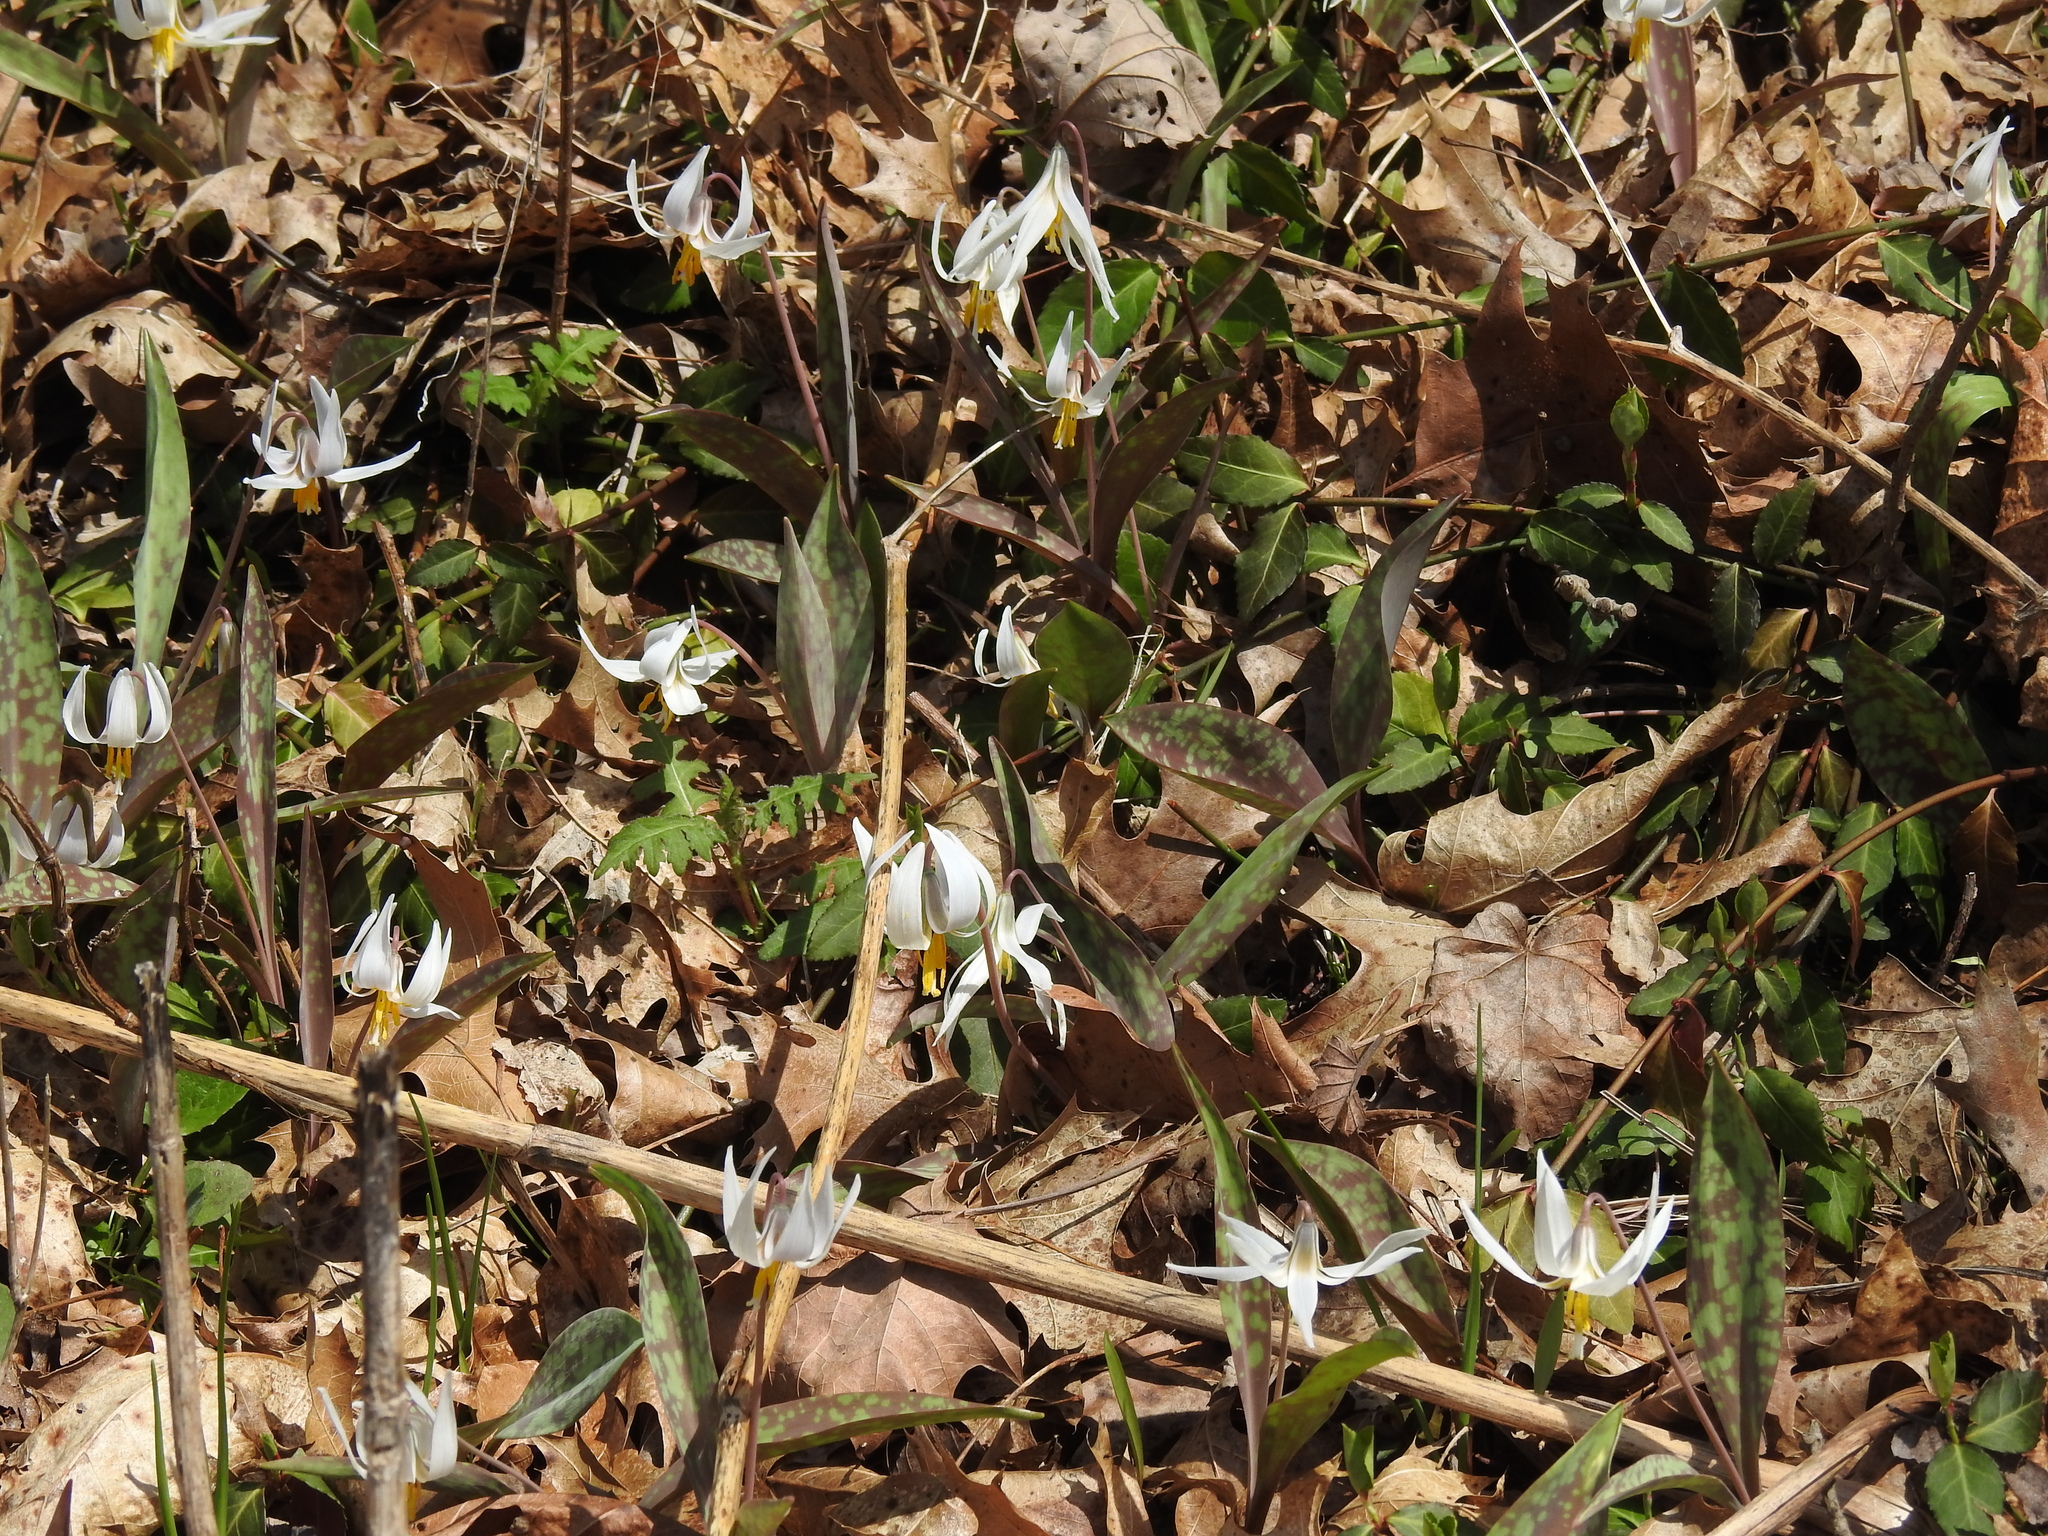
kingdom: Plantae
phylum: Tracheophyta
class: Liliopsida
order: Liliales
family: Liliaceae
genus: Erythronium
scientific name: Erythronium albidum
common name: White trout-lily
